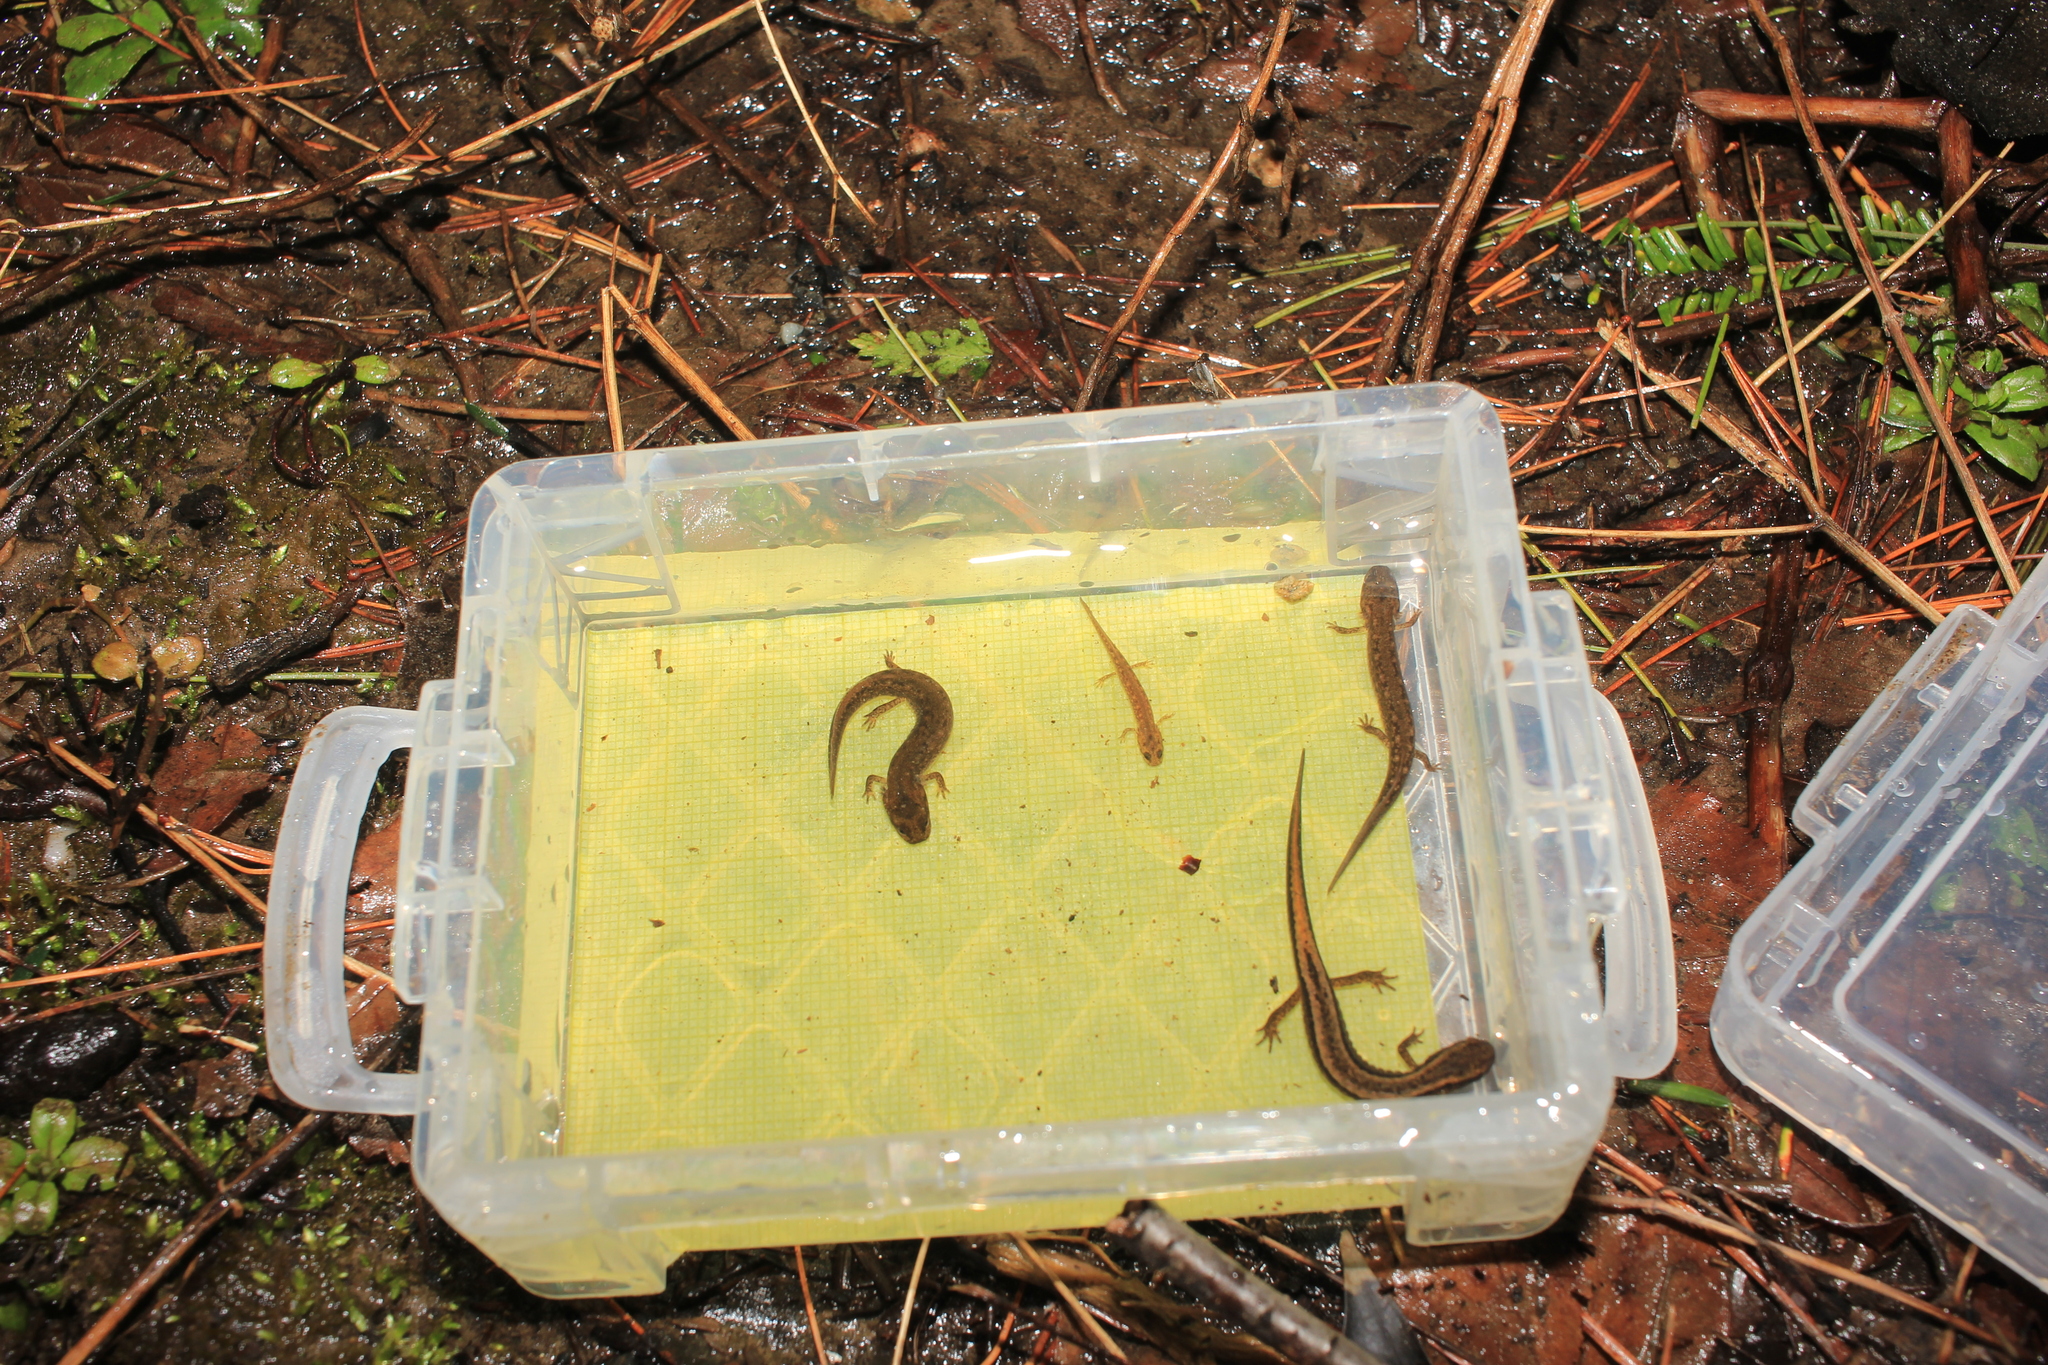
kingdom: Animalia
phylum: Chordata
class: Amphibia
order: Caudata
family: Plethodontidae
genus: Eurycea
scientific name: Eurycea bislineata
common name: Northern two-lined salamander
